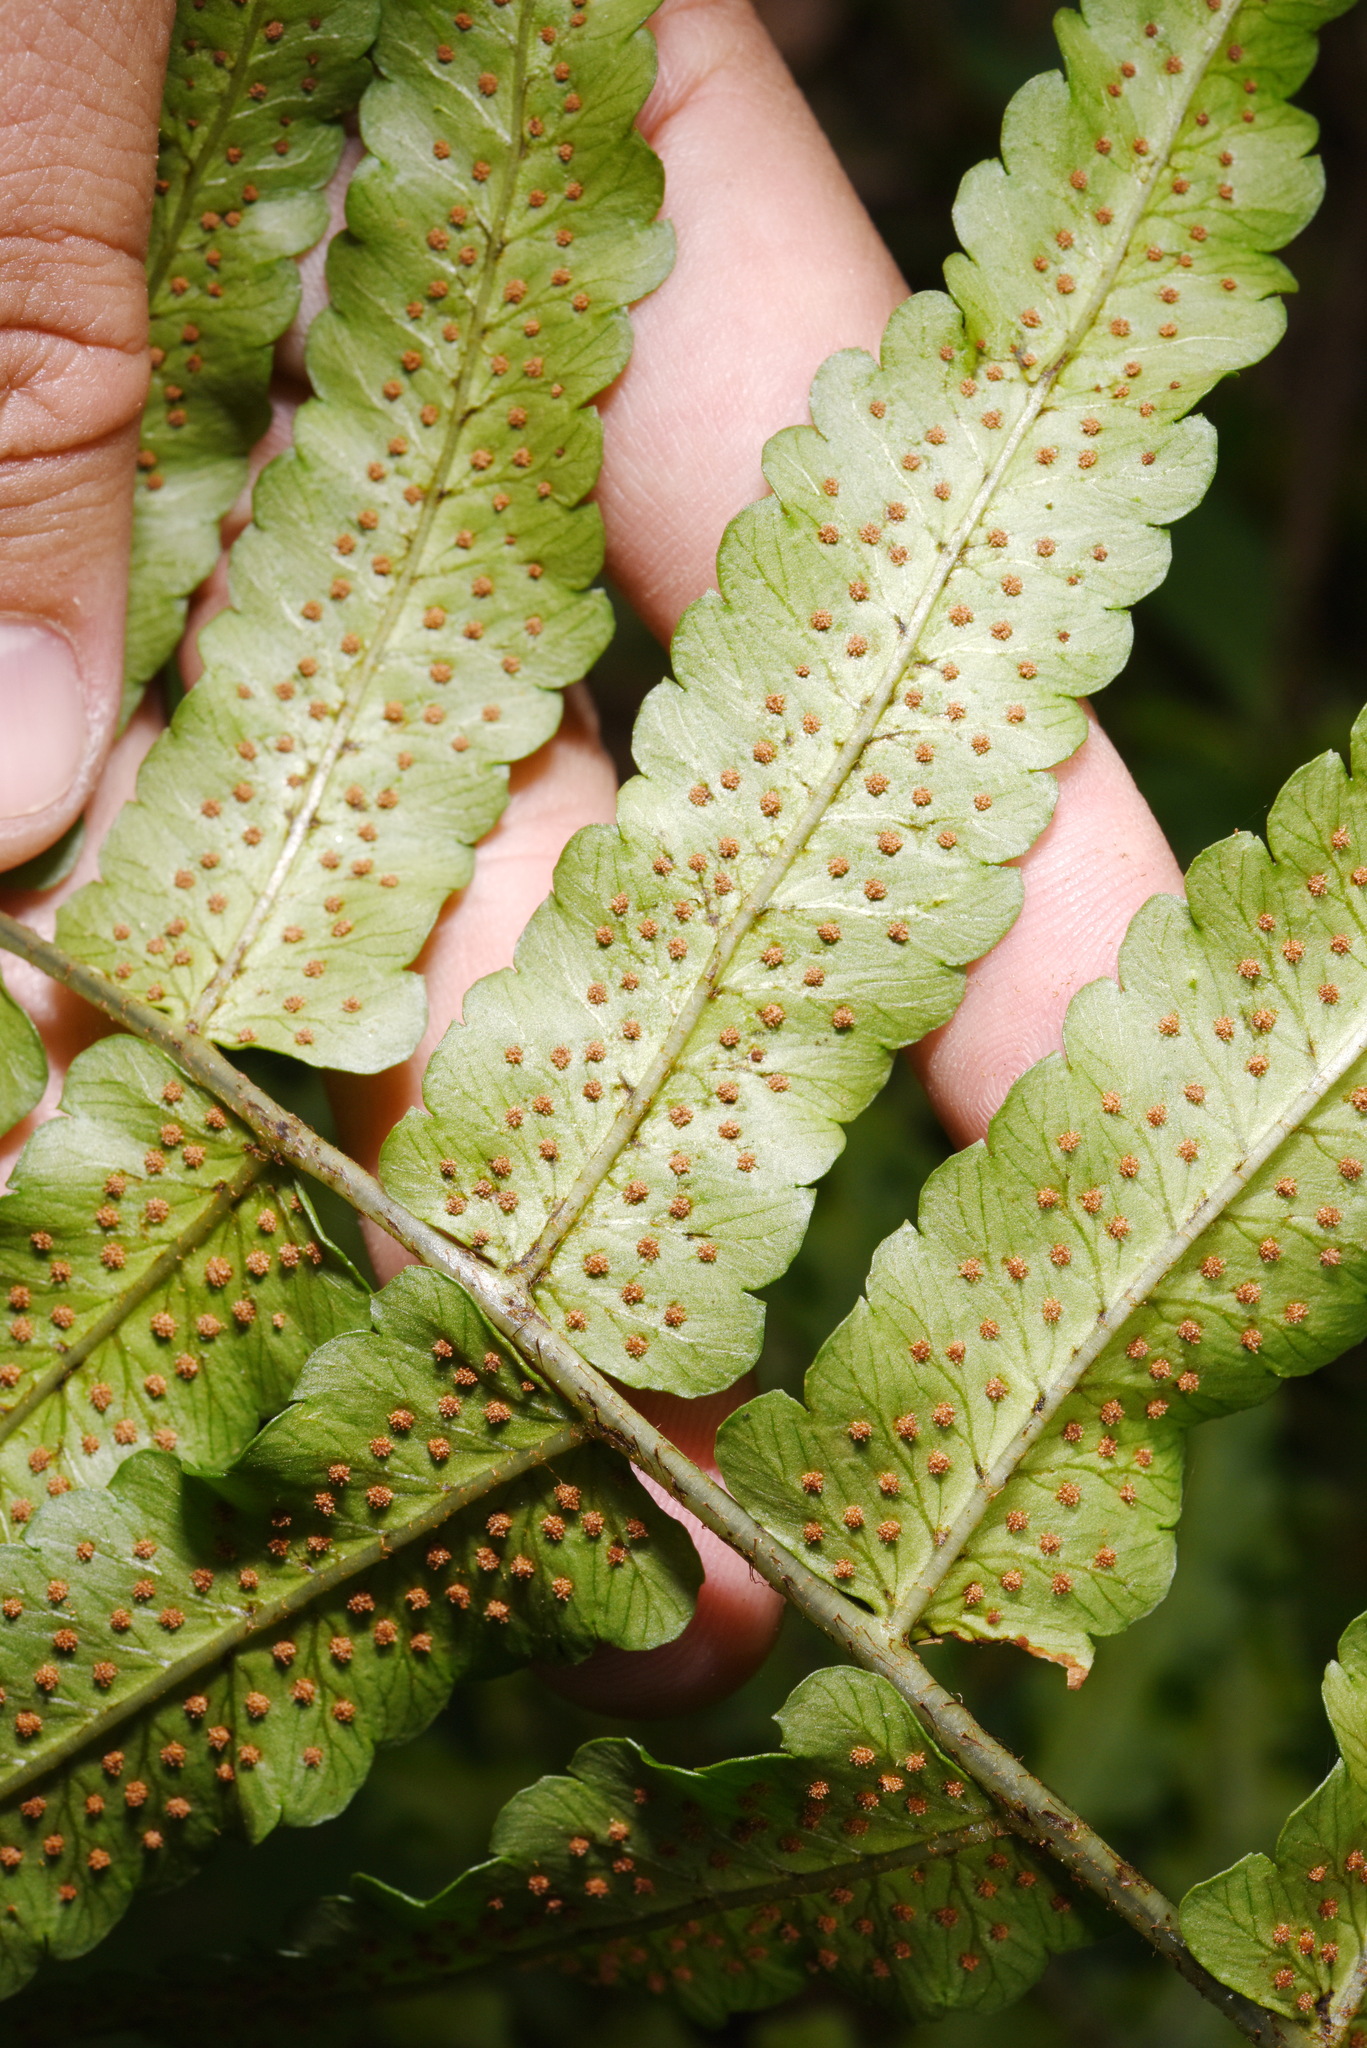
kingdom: Plantae
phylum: Tracheophyta
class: Polypodiopsida
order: Polypodiales
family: Dryopteridaceae
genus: Dryopteris
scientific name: Dryopteris scottii
